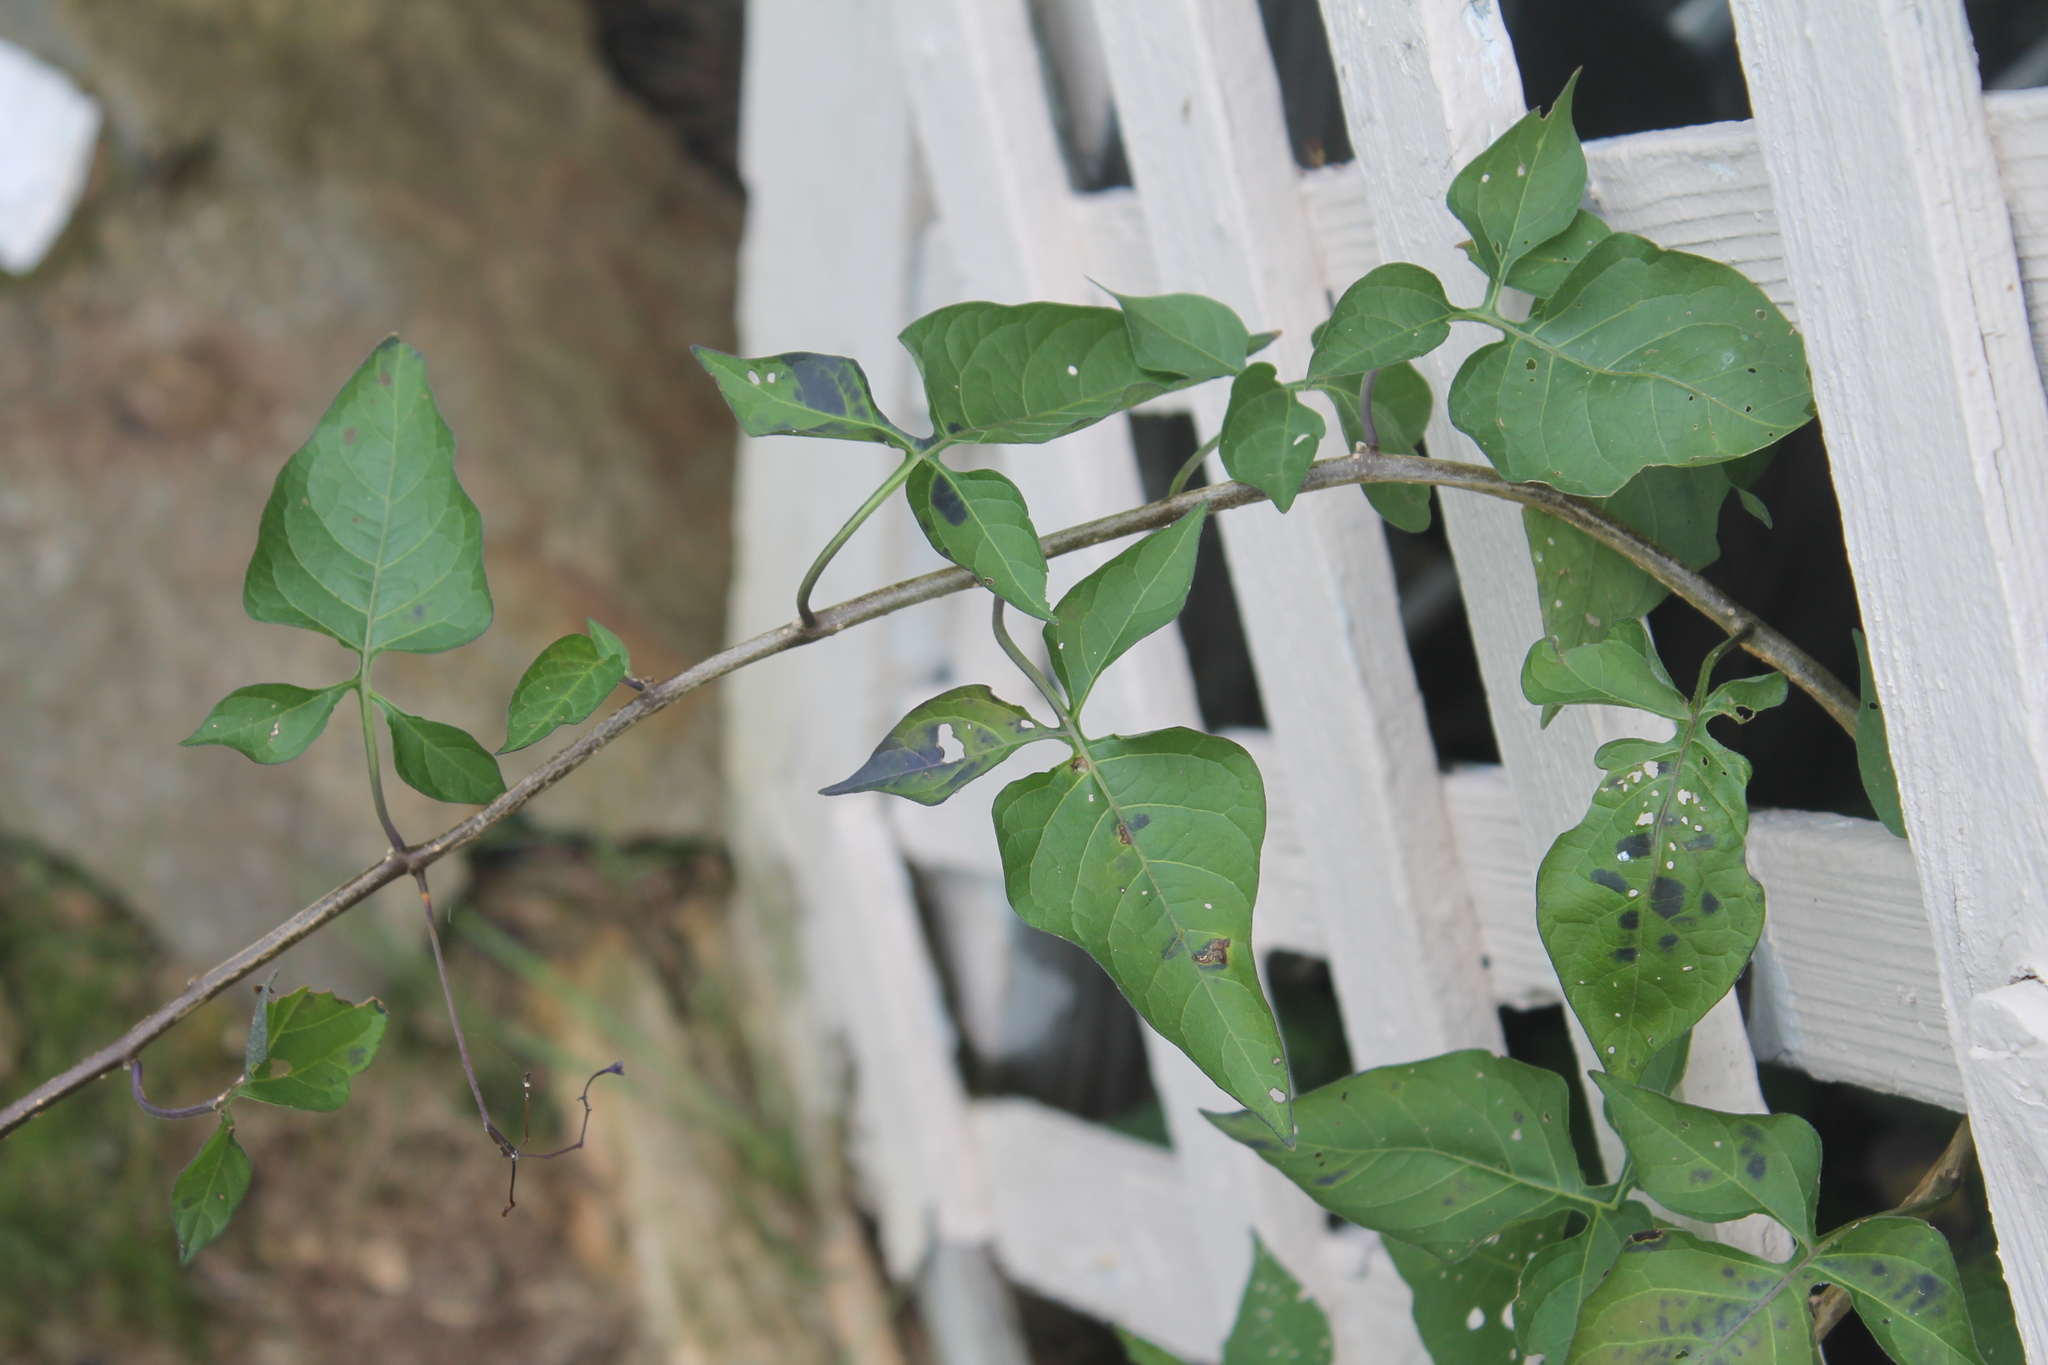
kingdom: Plantae
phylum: Tracheophyta
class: Magnoliopsida
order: Solanales
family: Solanaceae
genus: Solanum
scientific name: Solanum dulcamara
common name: Climbing nightshade
